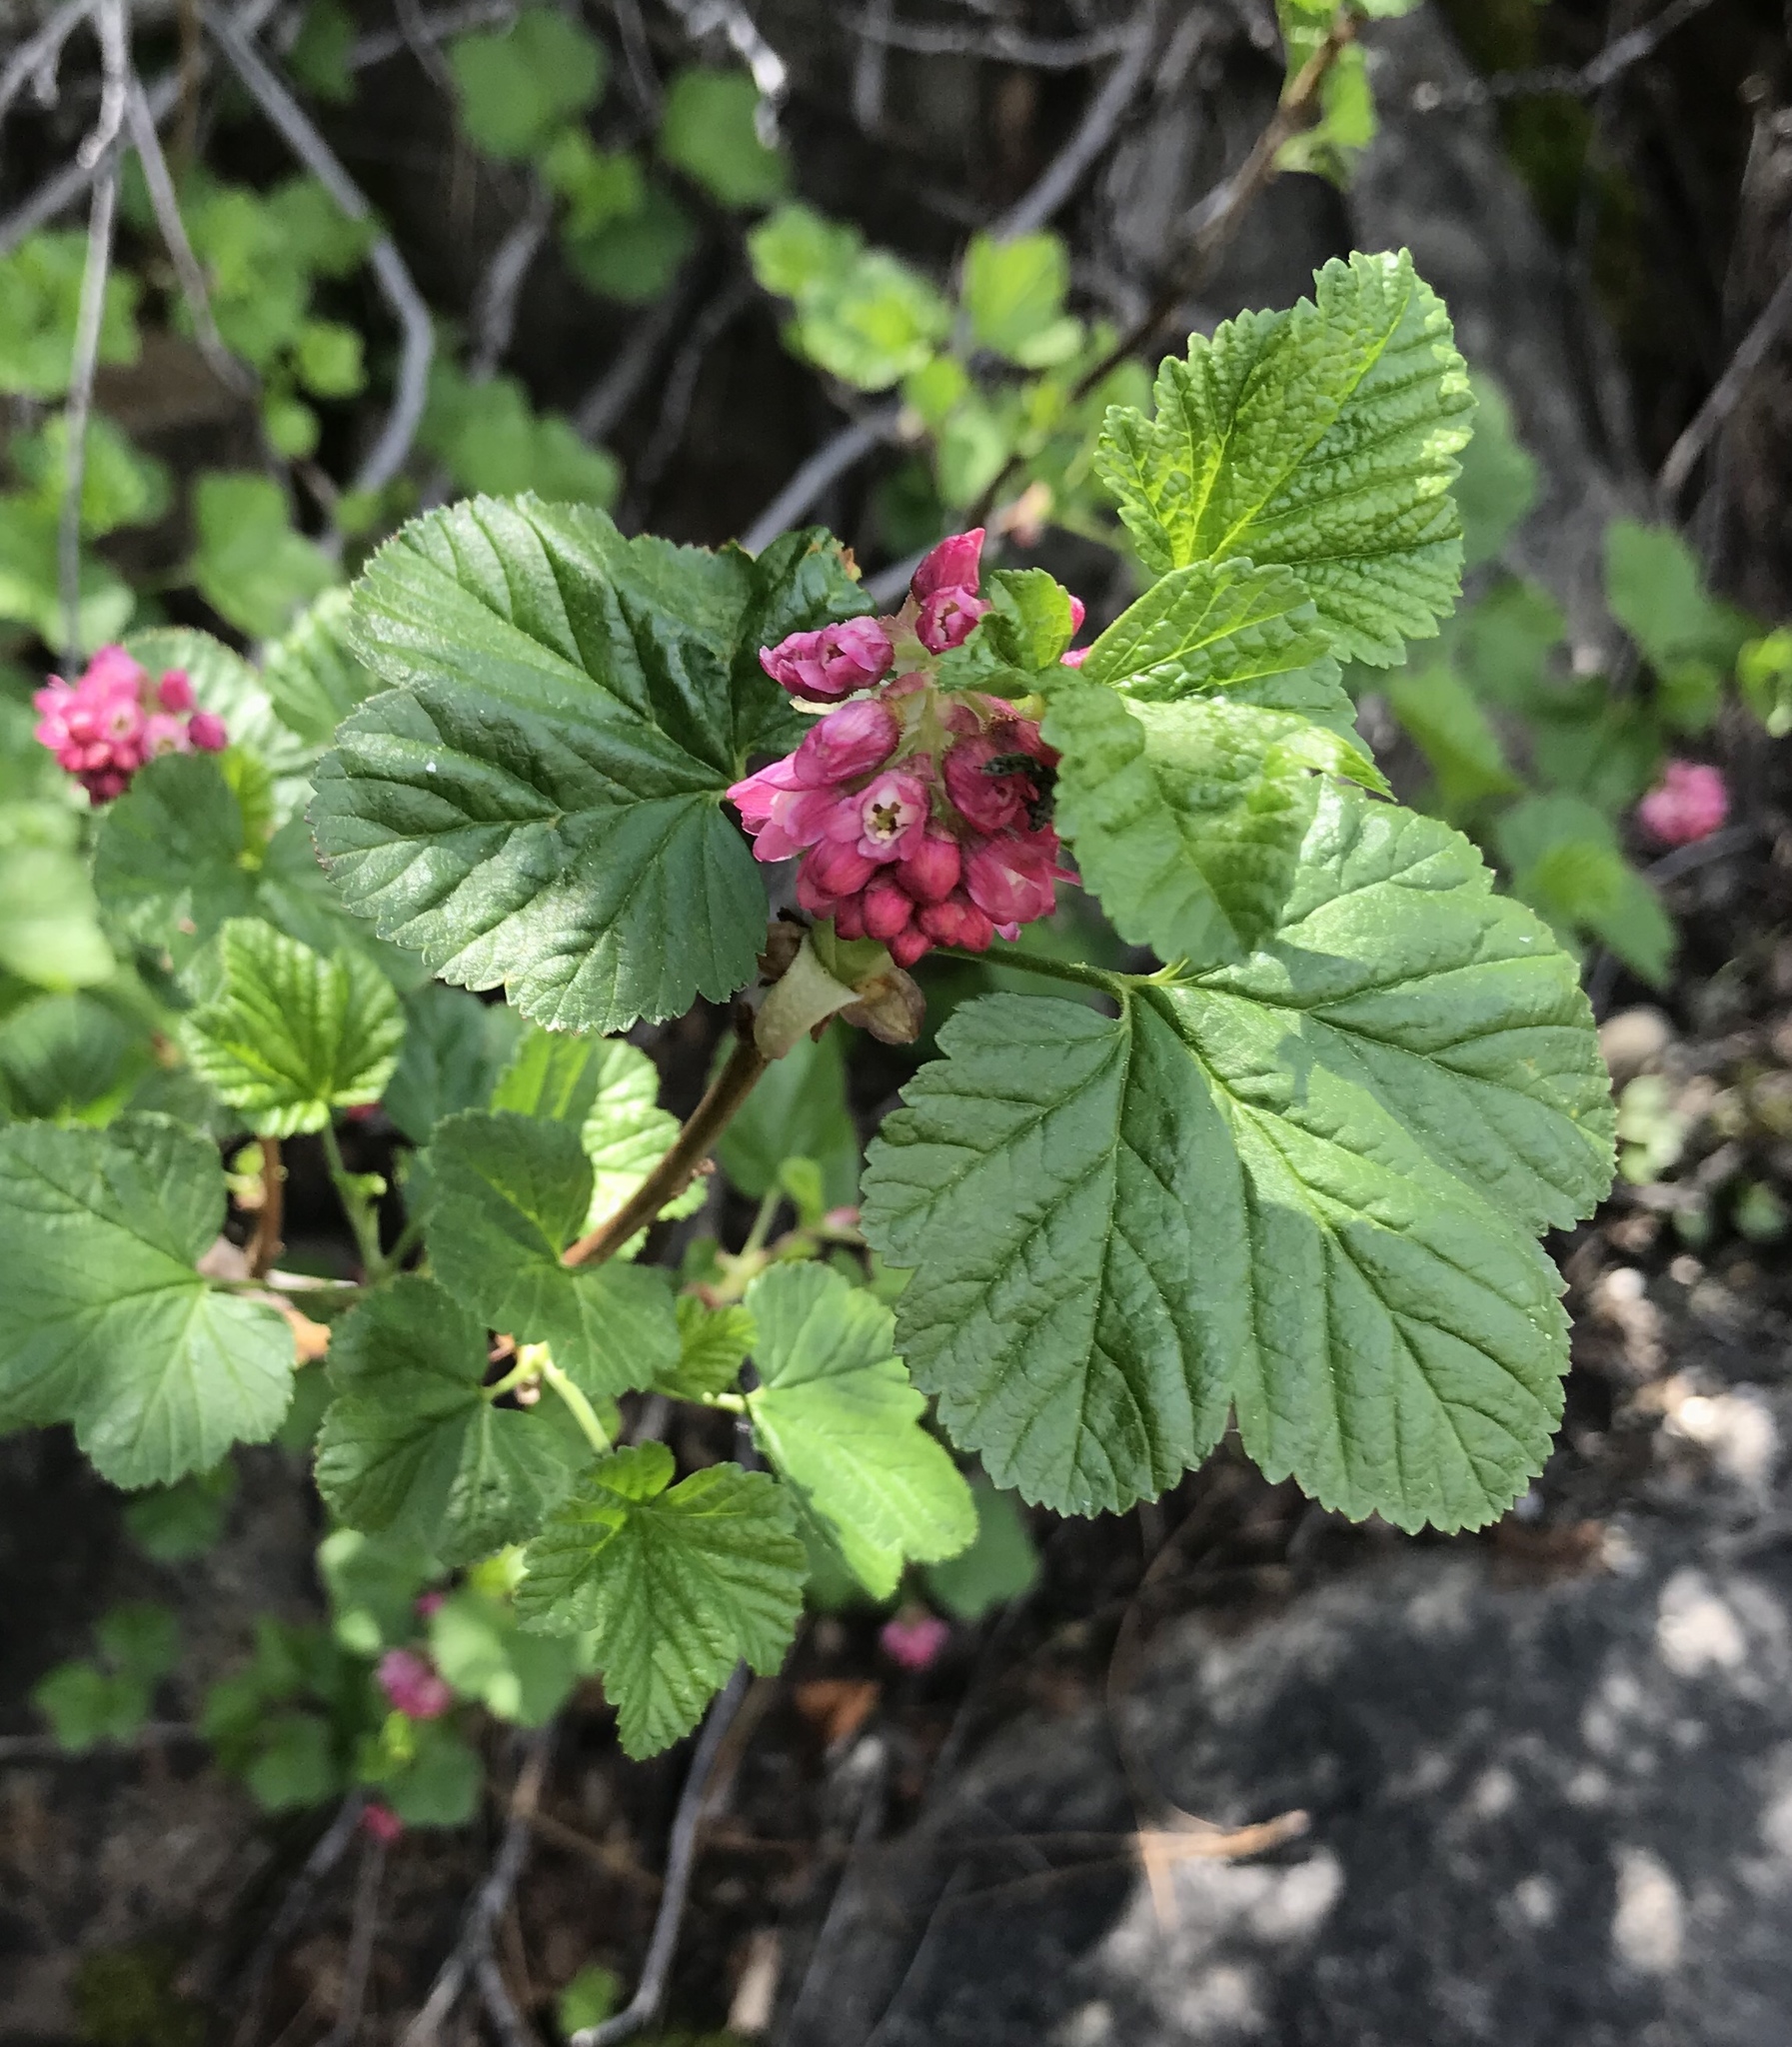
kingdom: Plantae
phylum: Tracheophyta
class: Magnoliopsida
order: Saxifragales
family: Grossulariaceae
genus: Ribes
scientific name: Ribes nevadense
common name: Mountain pink currant
